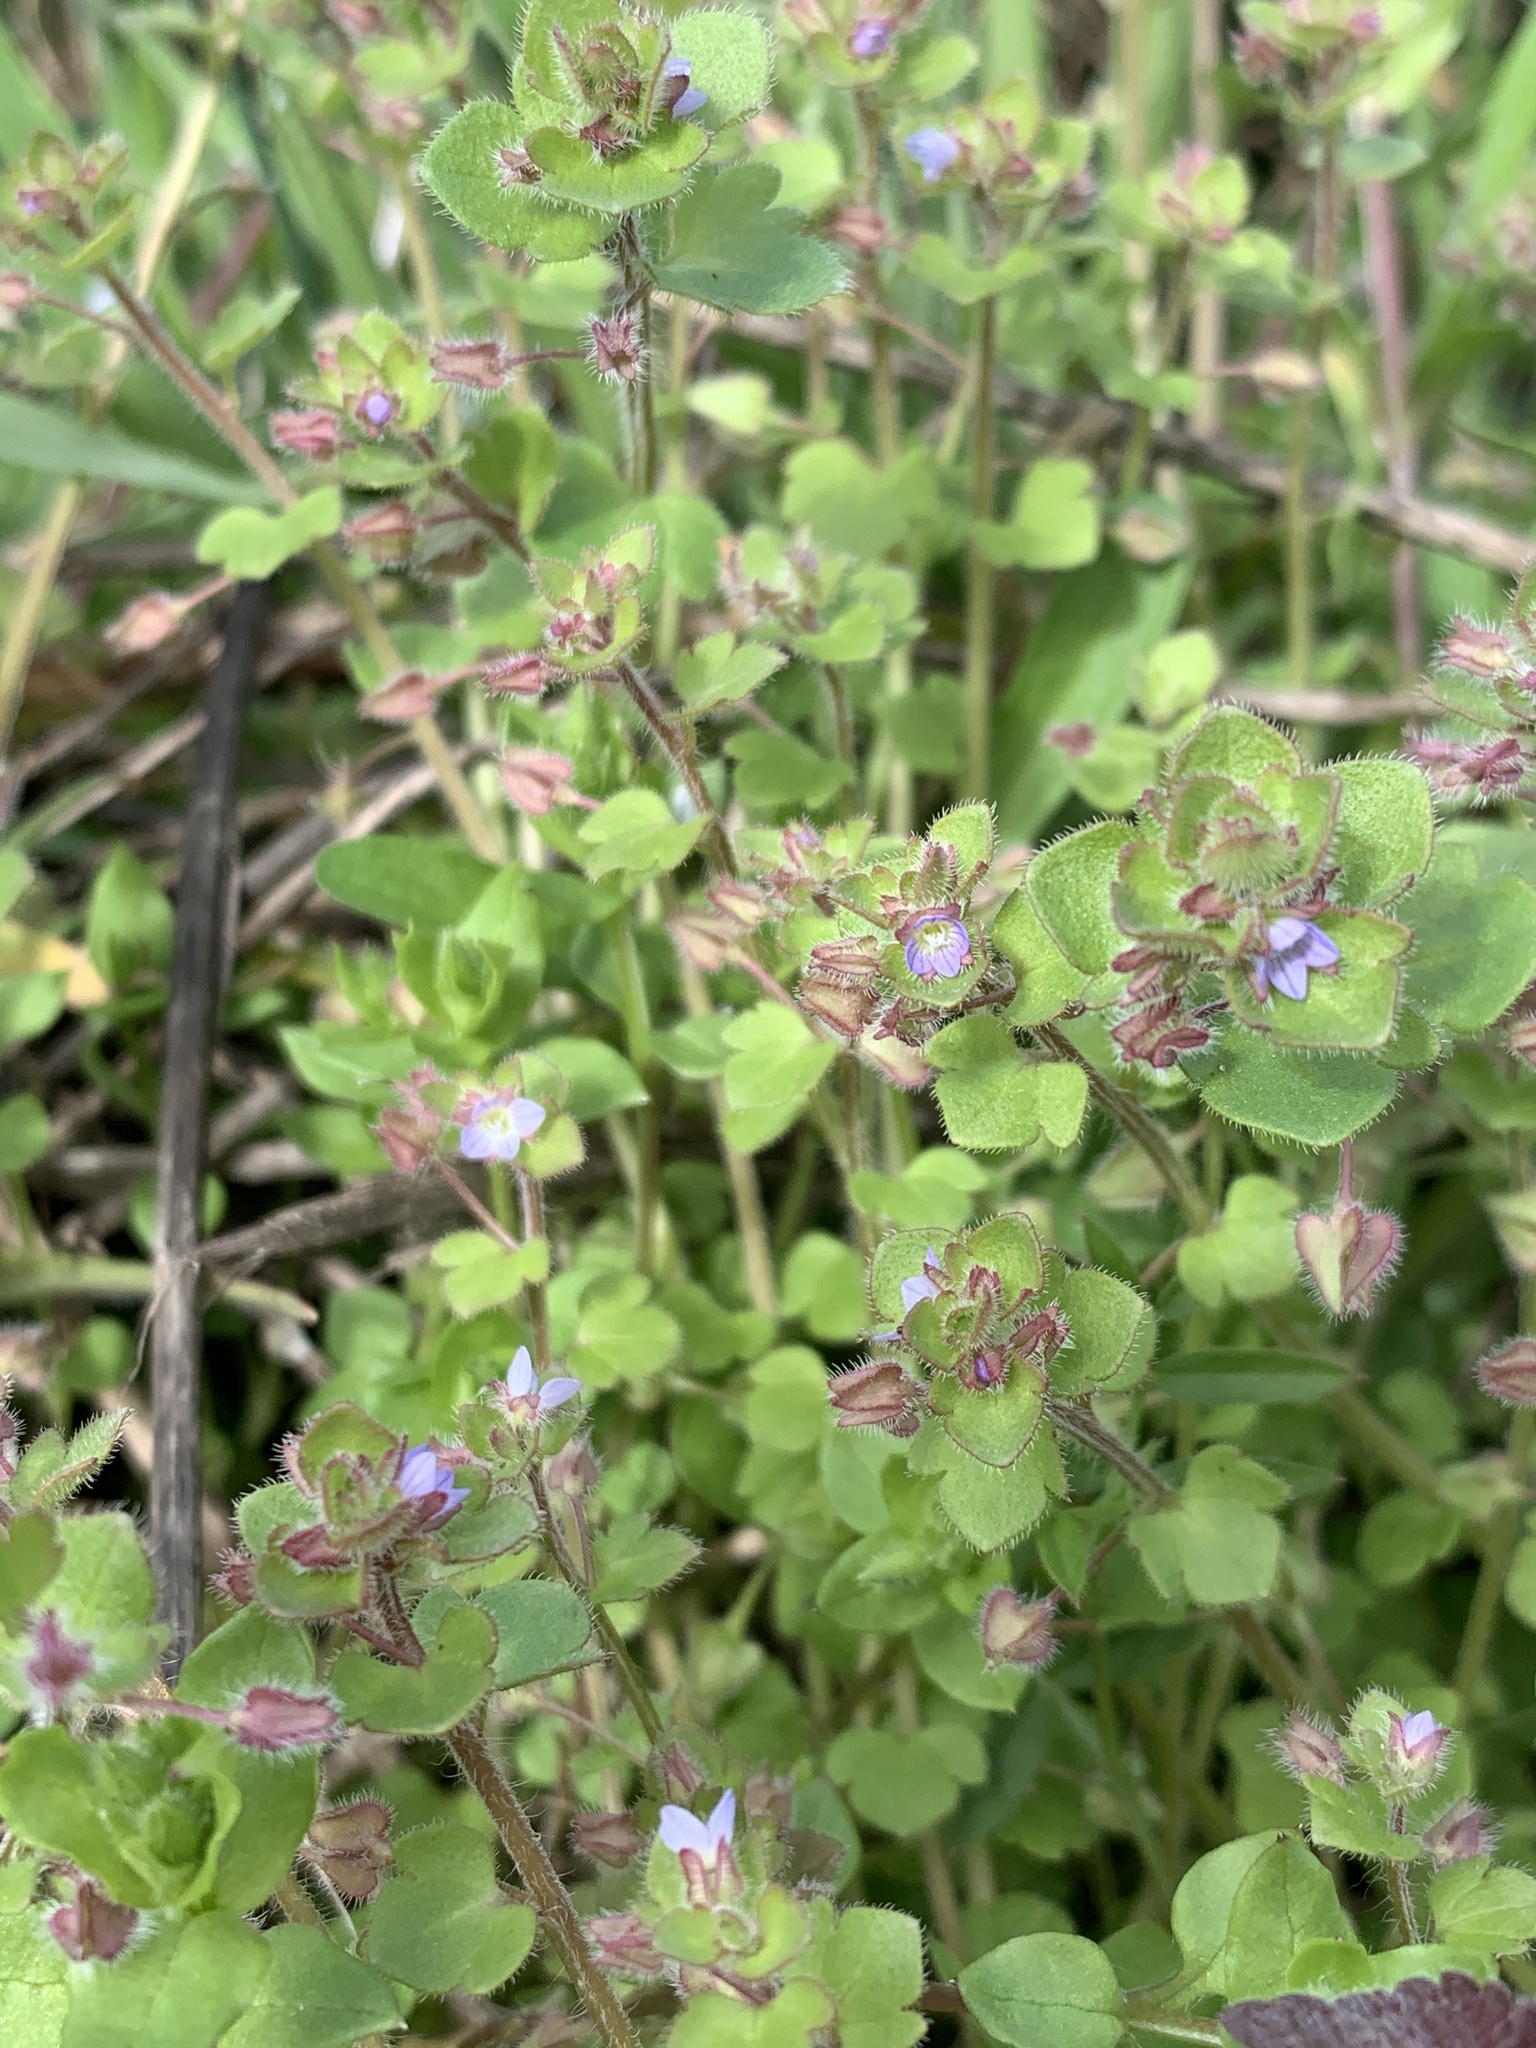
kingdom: Plantae
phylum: Tracheophyta
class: Magnoliopsida
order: Lamiales
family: Plantaginaceae
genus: Veronica
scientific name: Veronica sublobata
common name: False ivy-leaved speedwell
